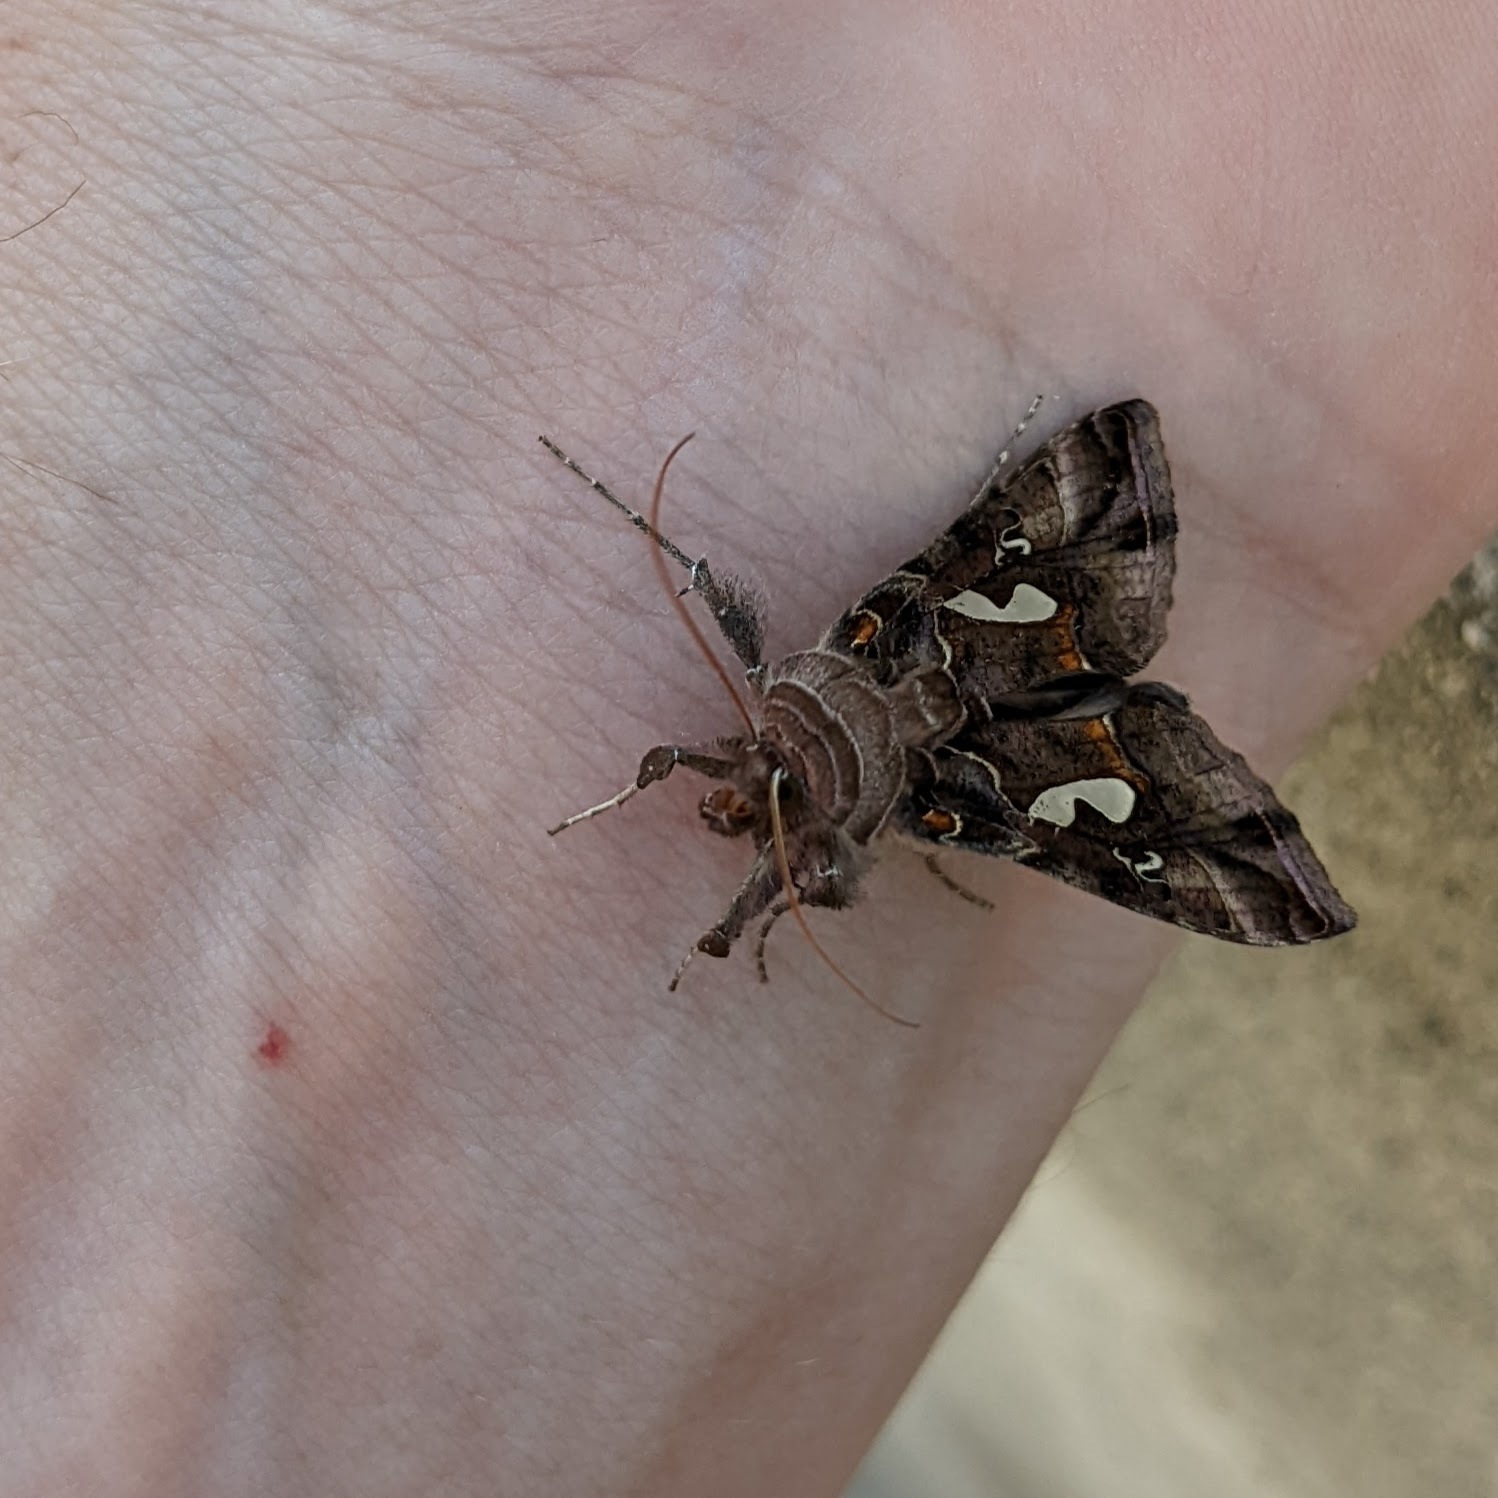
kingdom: Animalia
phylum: Arthropoda
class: Insecta
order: Lepidoptera
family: Noctuidae
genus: Megalographa
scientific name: Megalographa biloba
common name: Cutworm
